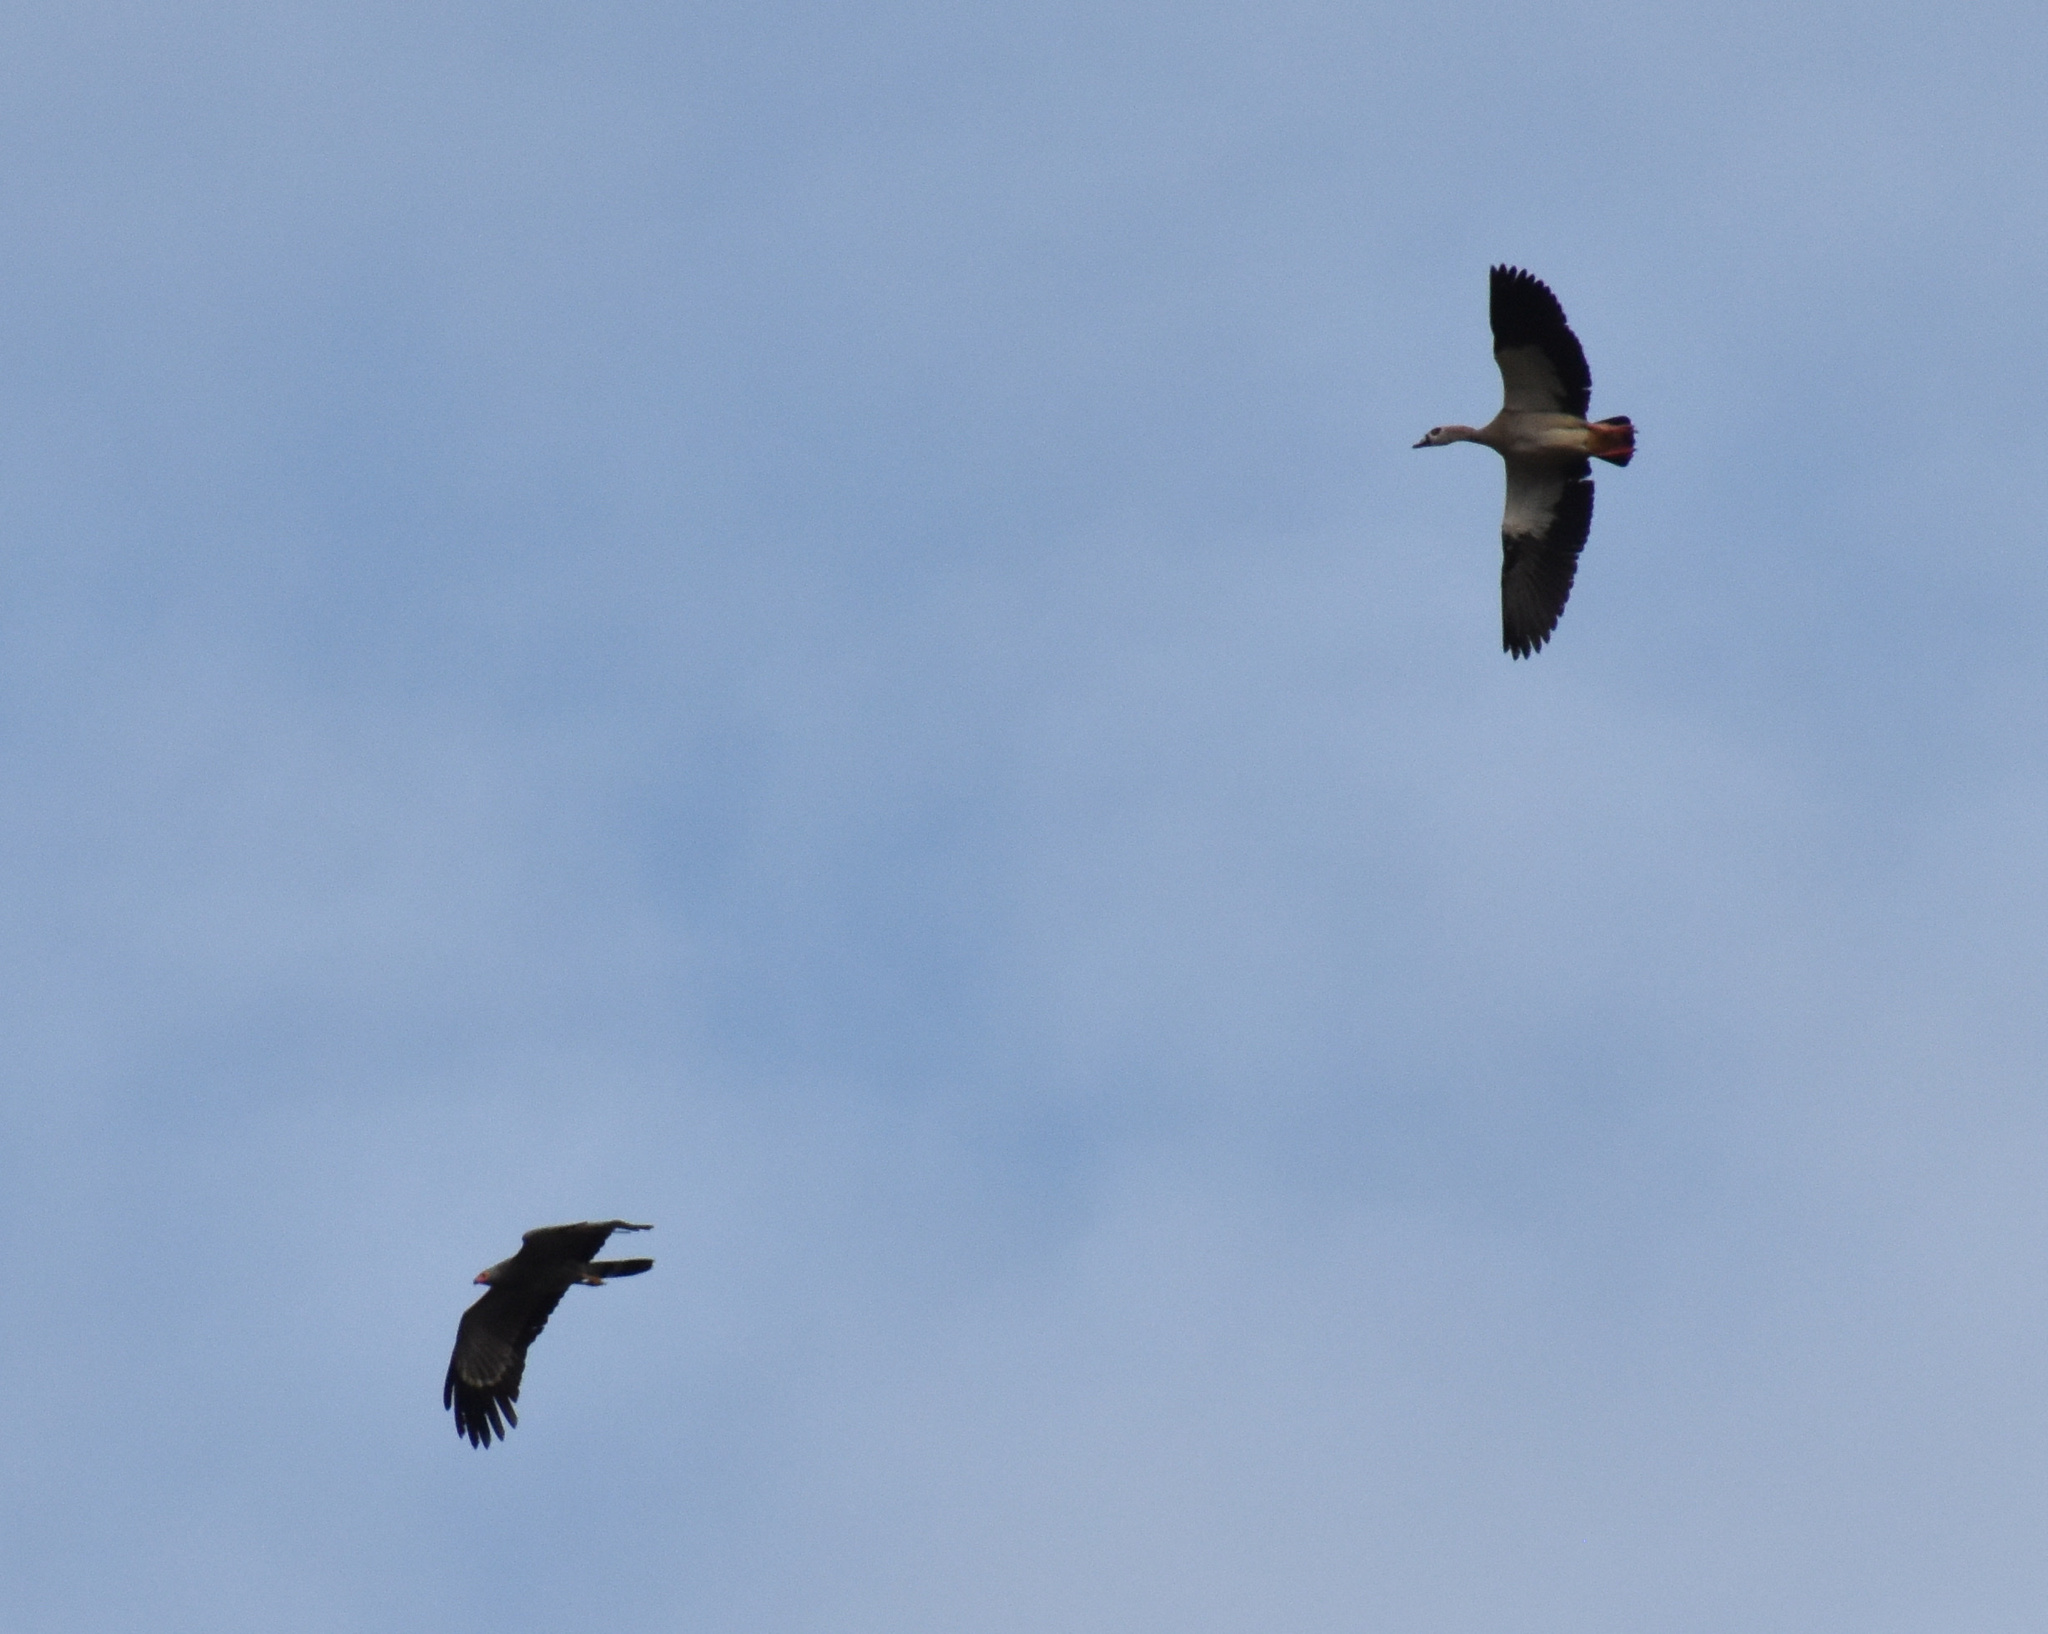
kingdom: Animalia
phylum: Chordata
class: Aves
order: Anseriformes
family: Anatidae
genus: Alopochen
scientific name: Alopochen aegyptiaca
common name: Egyptian goose
